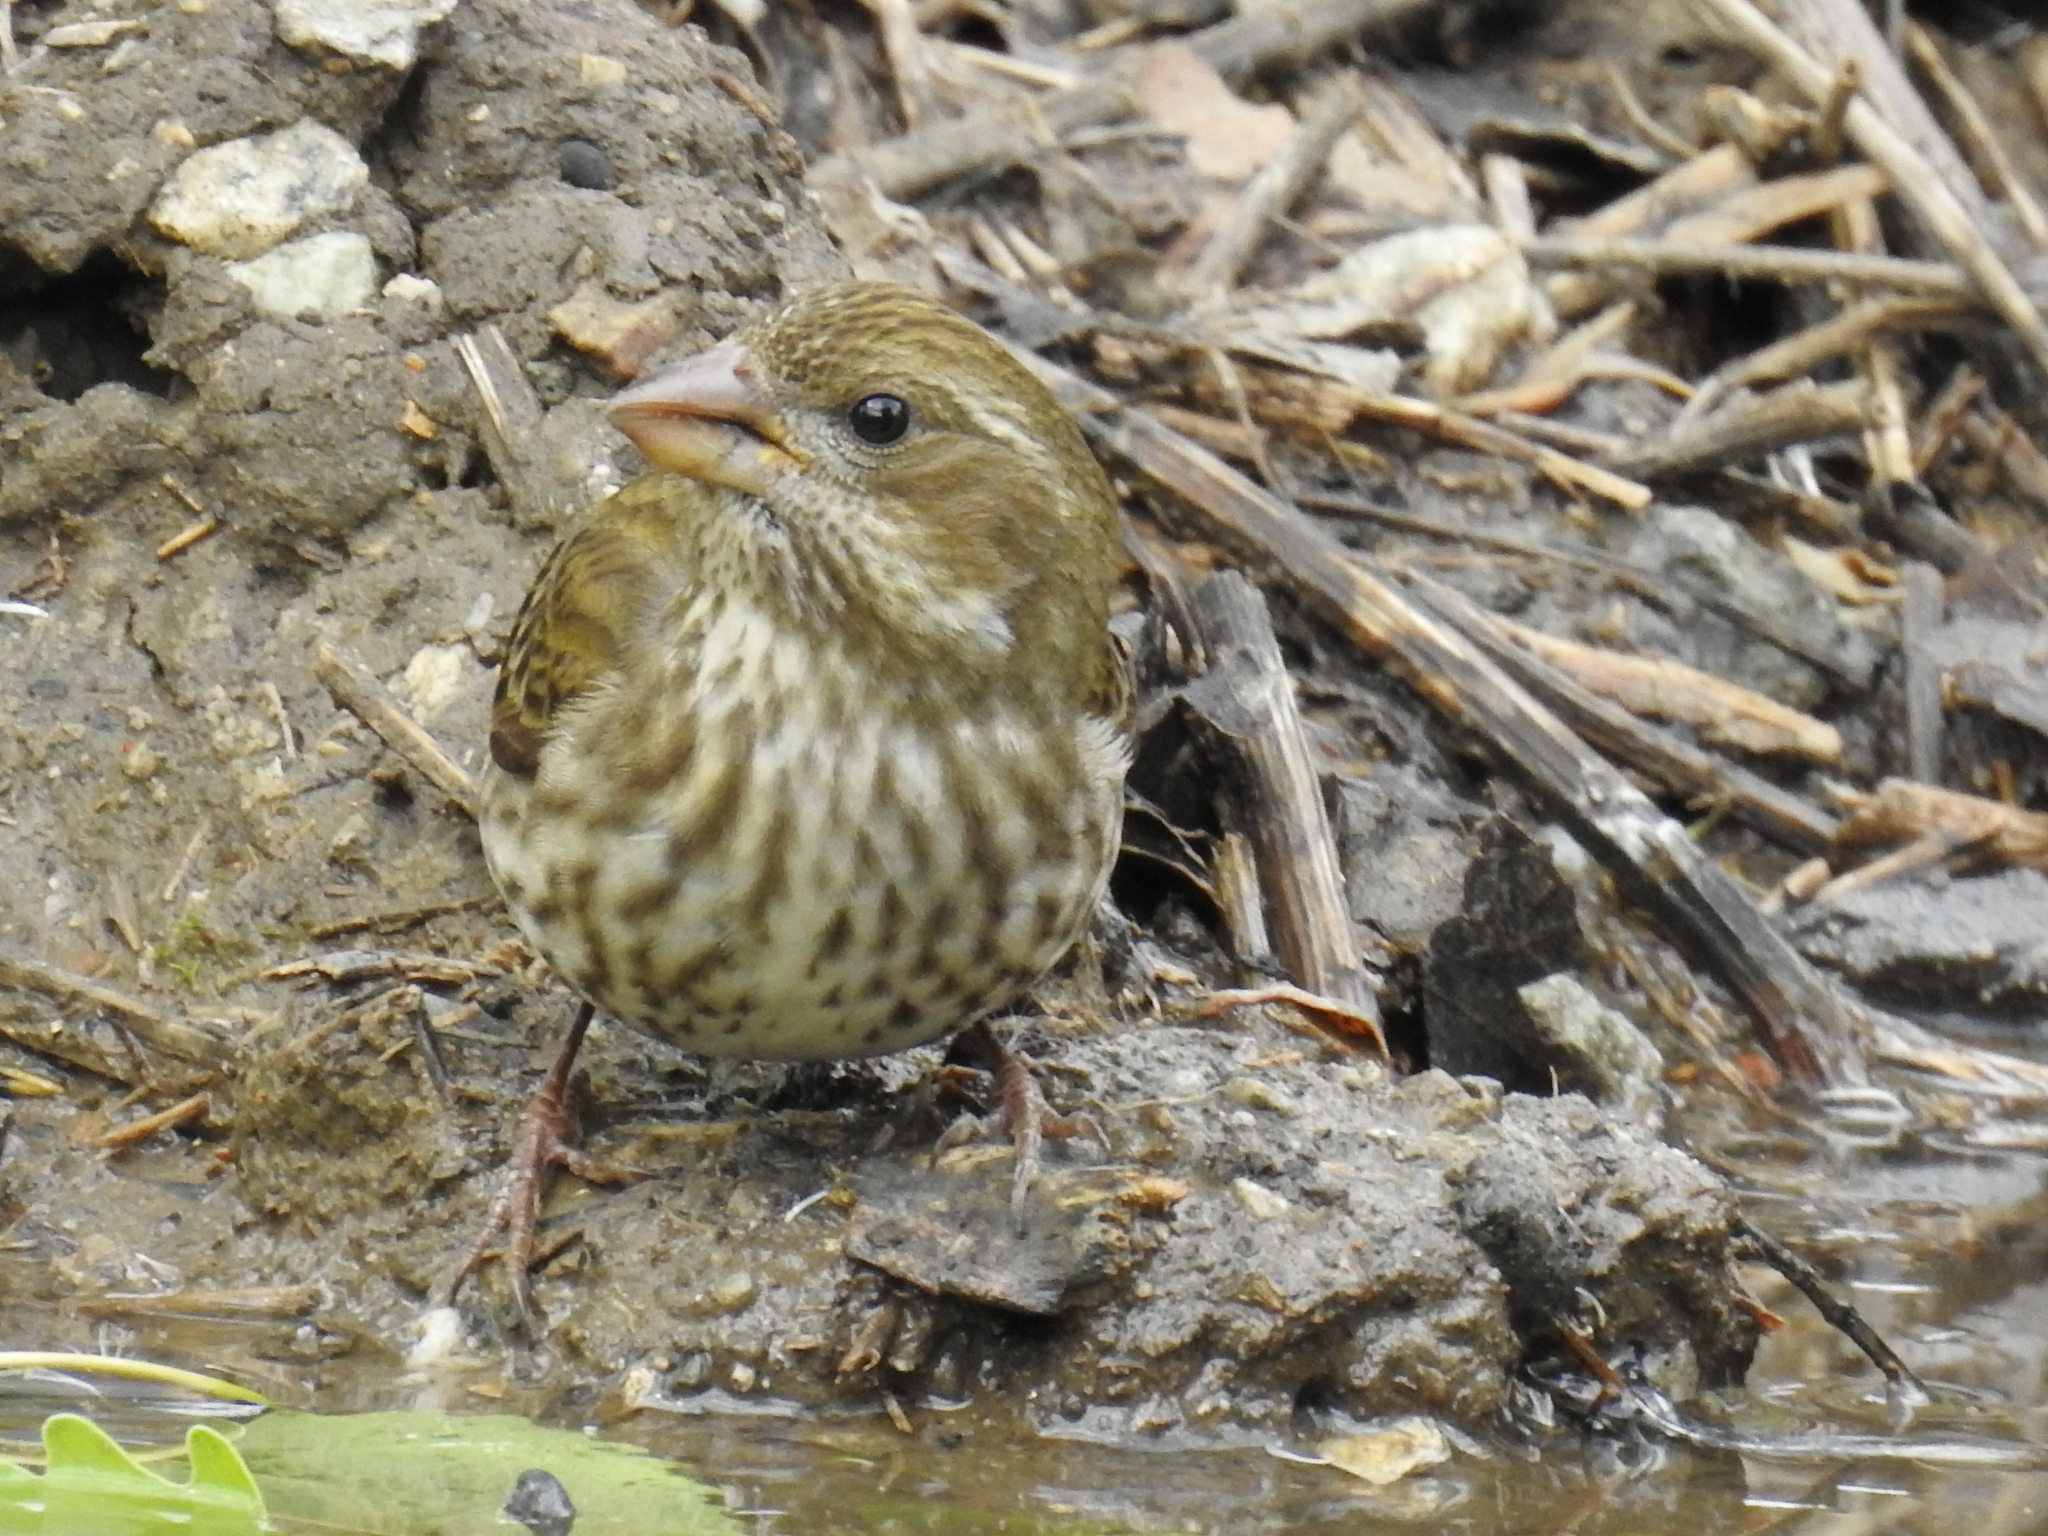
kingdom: Animalia
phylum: Chordata
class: Aves
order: Passeriformes
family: Fringillidae
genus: Haemorhous
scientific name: Haemorhous purpureus
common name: Purple finch
